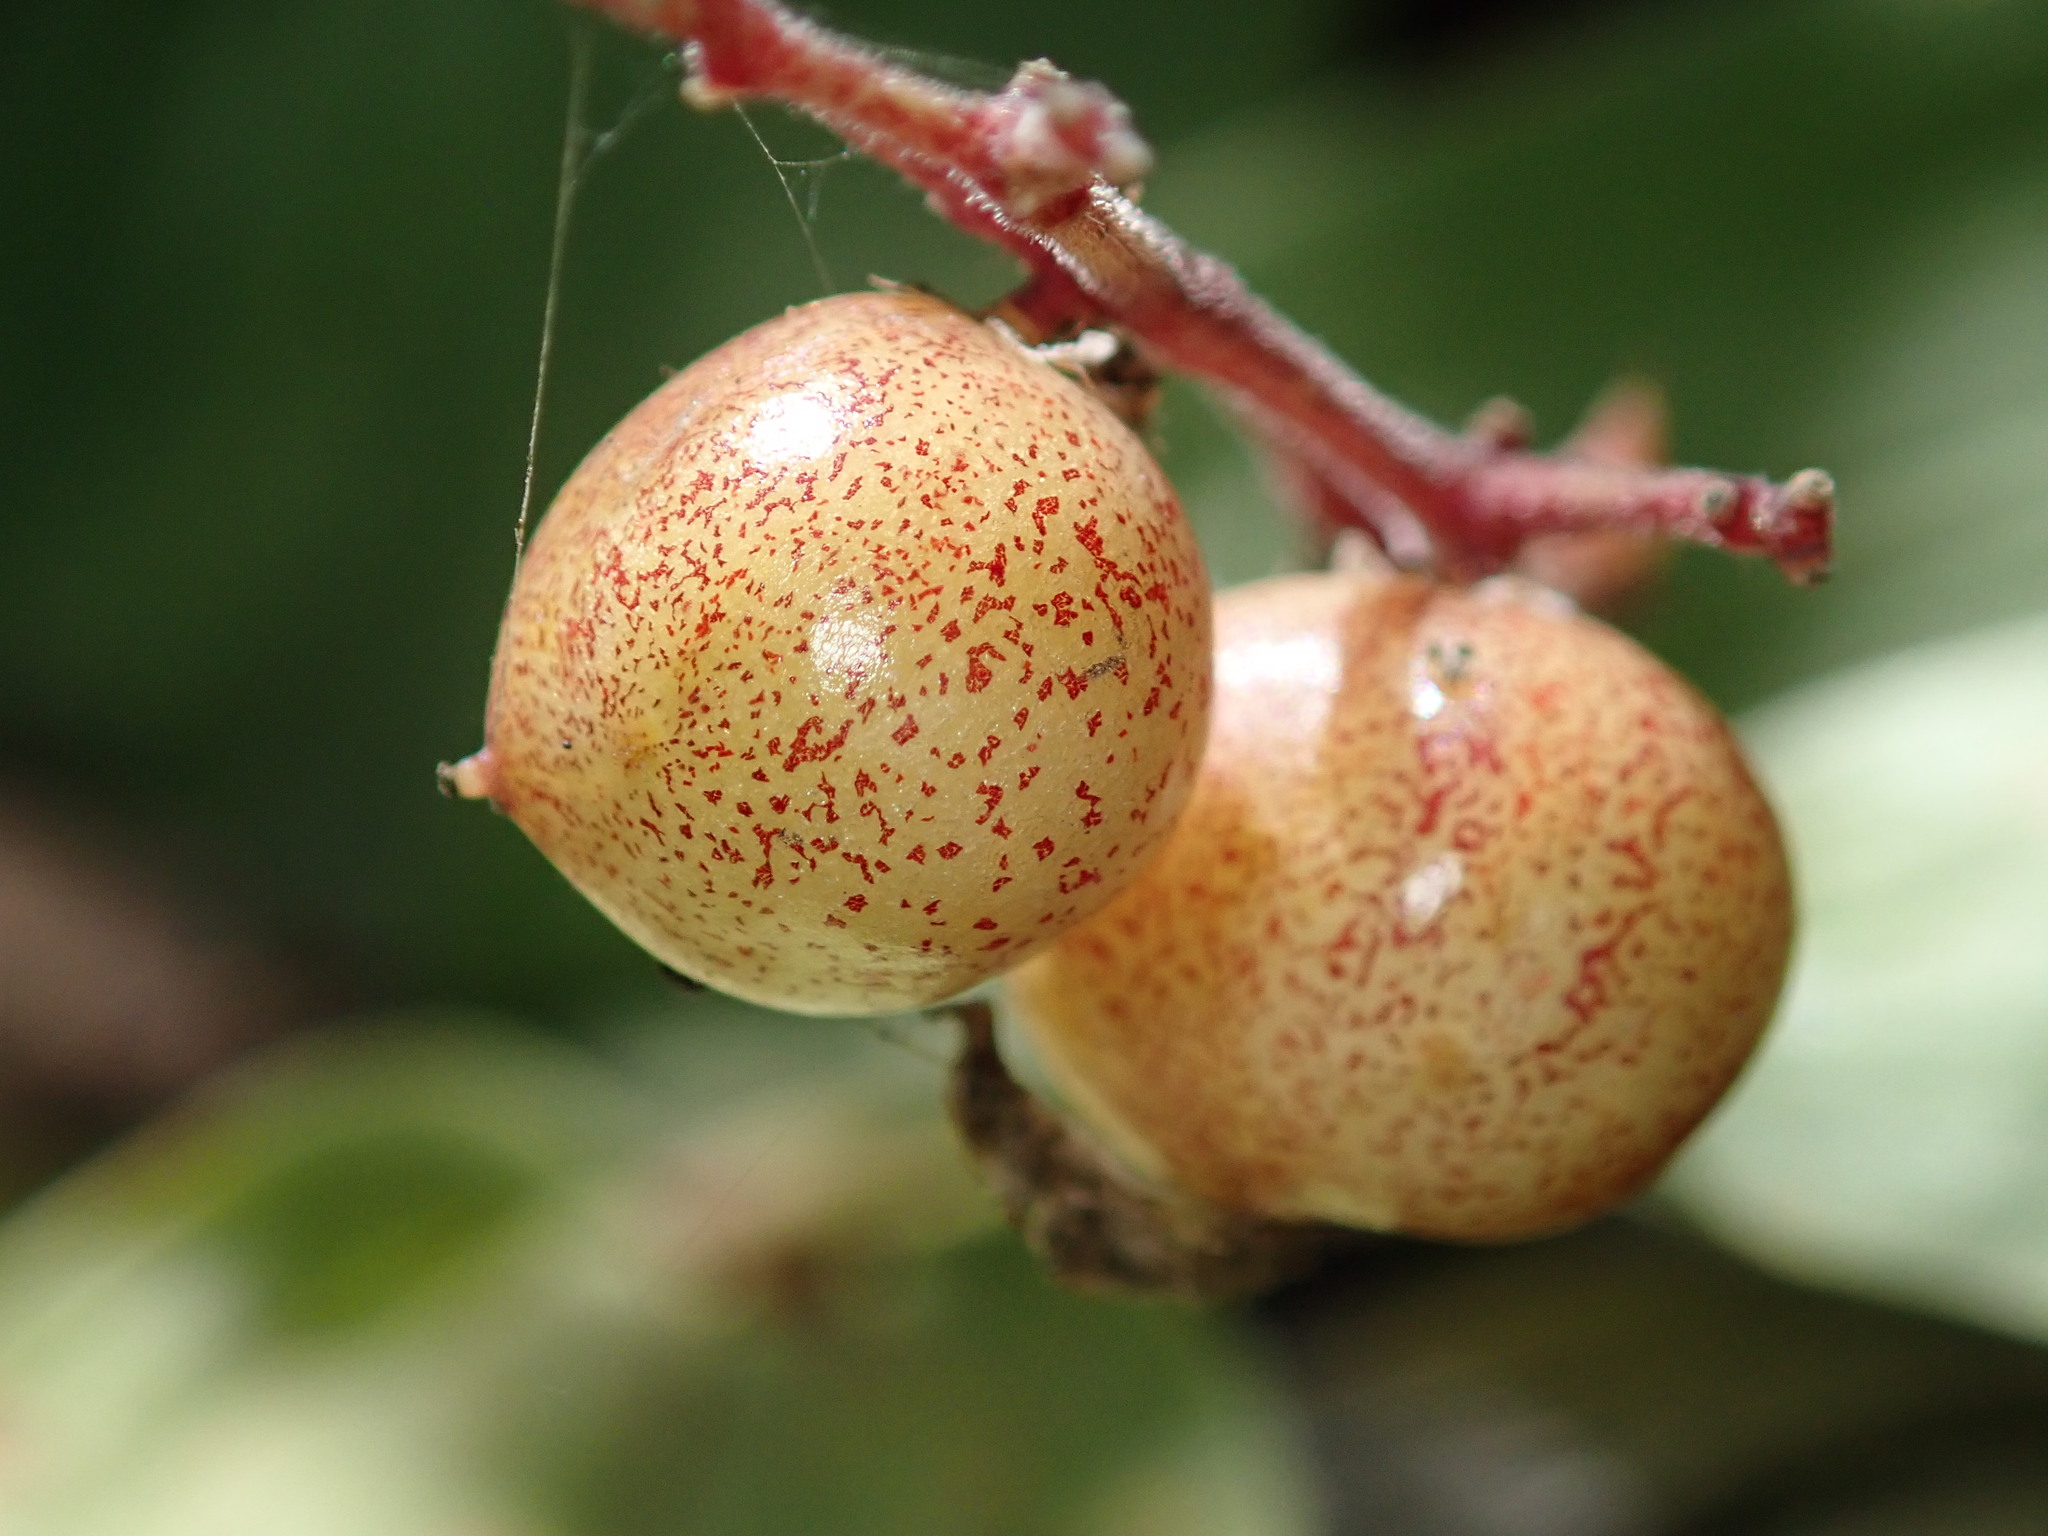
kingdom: Plantae
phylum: Tracheophyta
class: Liliopsida
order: Asparagales
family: Asparagaceae
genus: Maianthemum
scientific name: Maianthemum racemosum
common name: False spikenard
